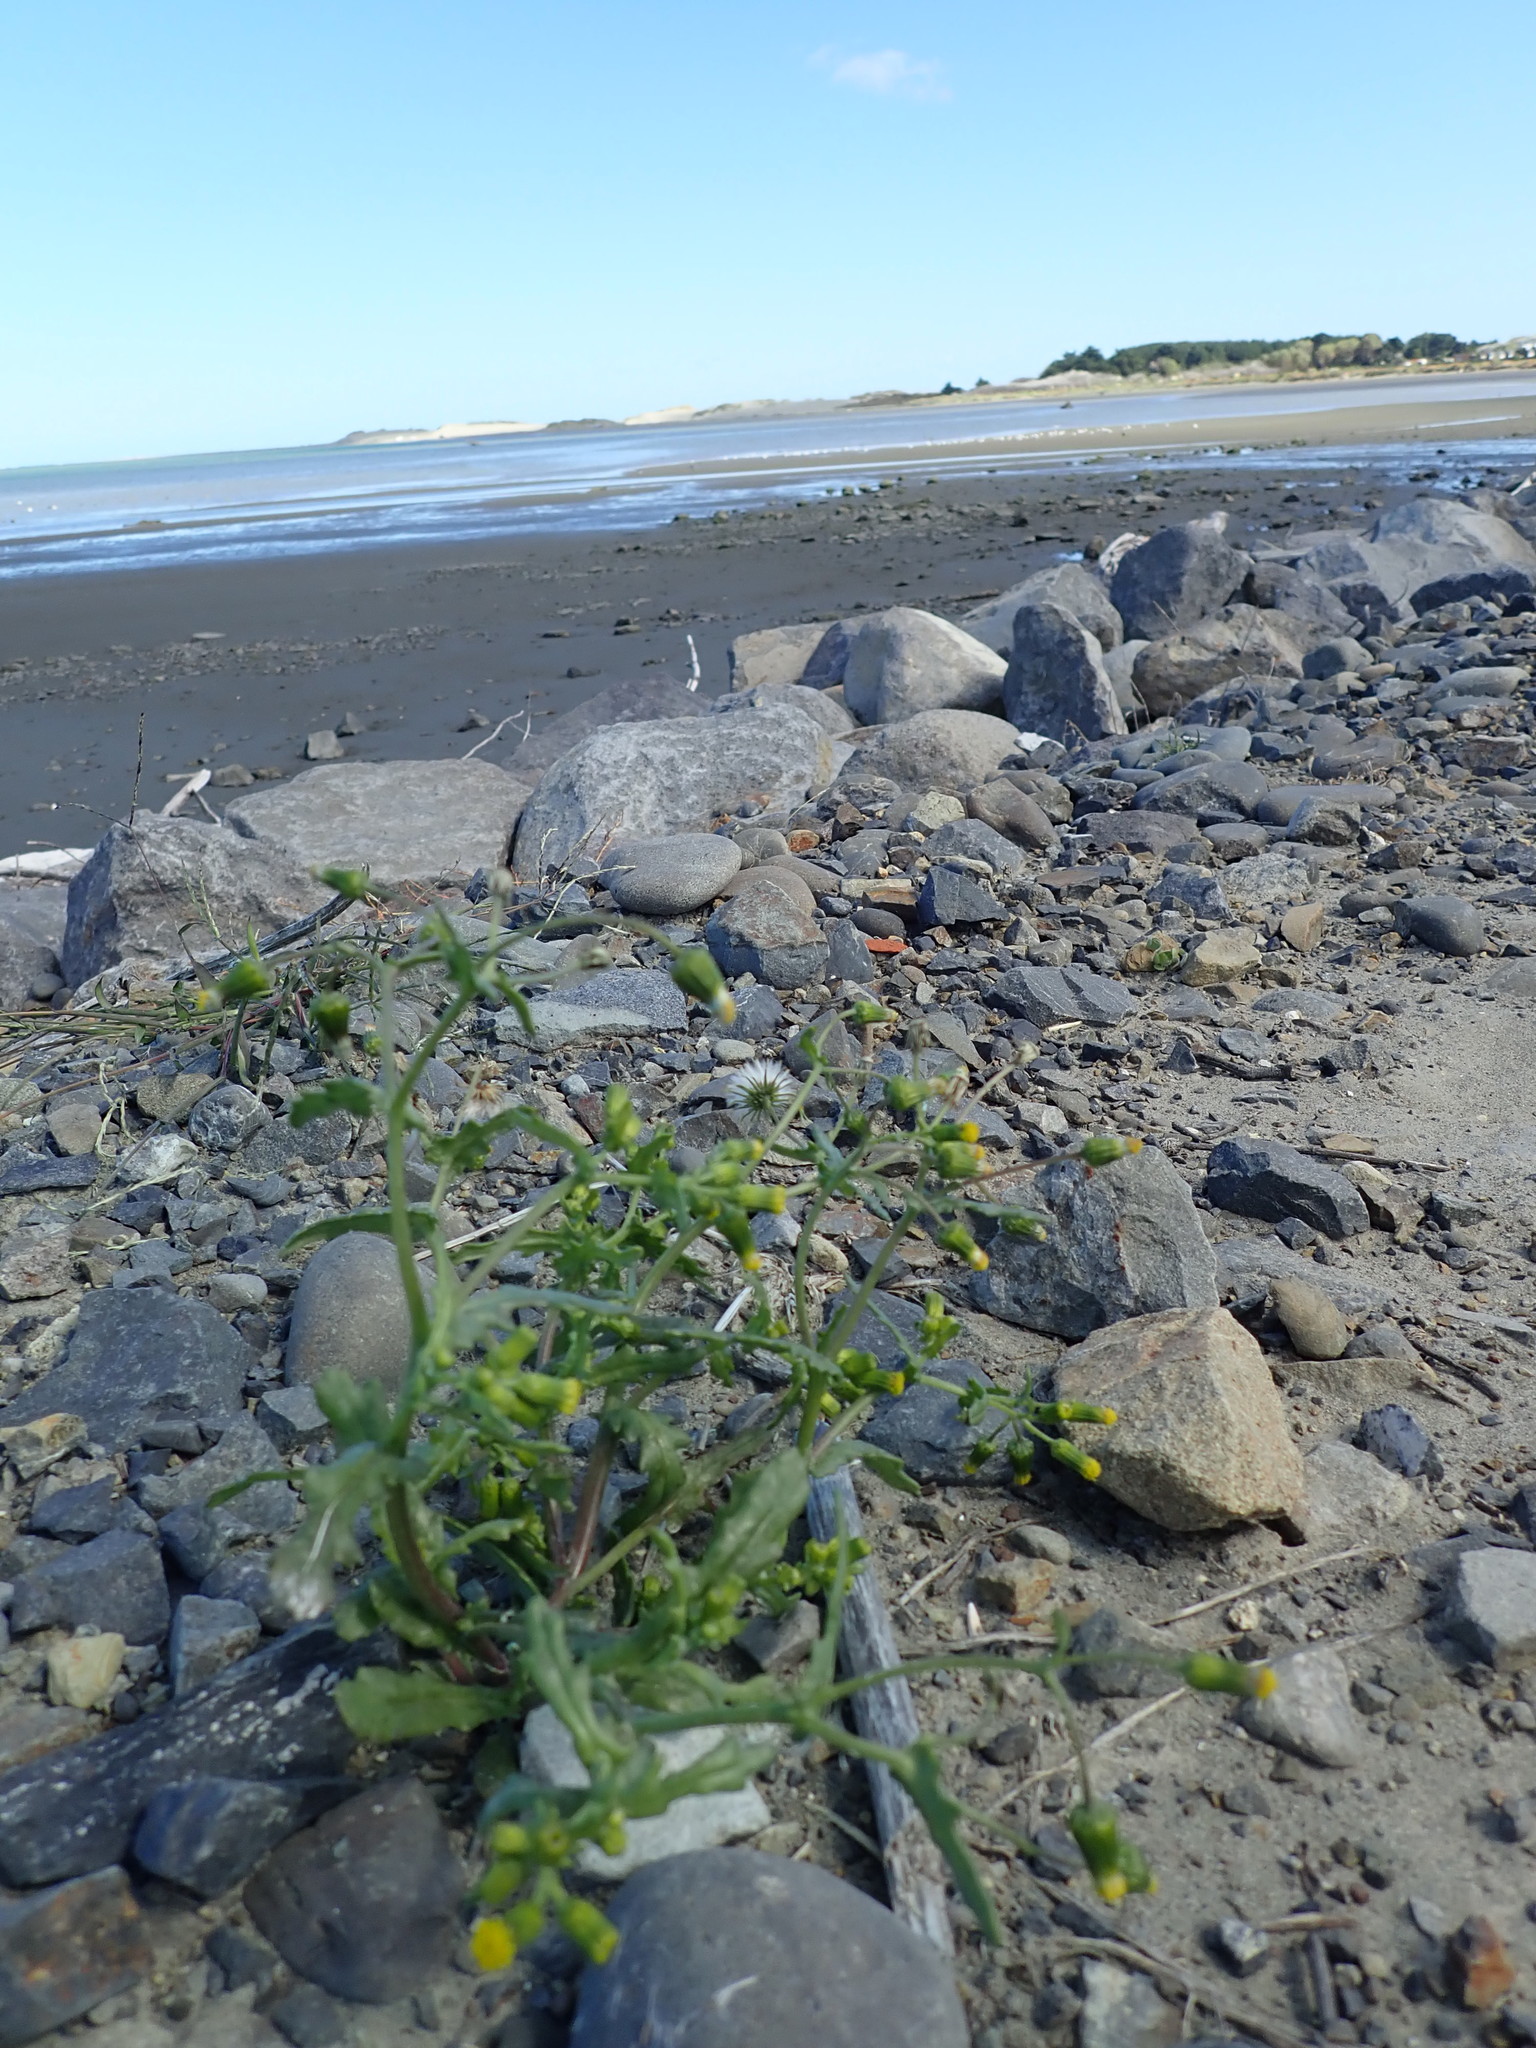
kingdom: Plantae
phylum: Tracheophyta
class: Magnoliopsida
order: Asterales
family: Asteraceae
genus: Senecio
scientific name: Senecio vulgaris
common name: Old-man-in-the-spring
